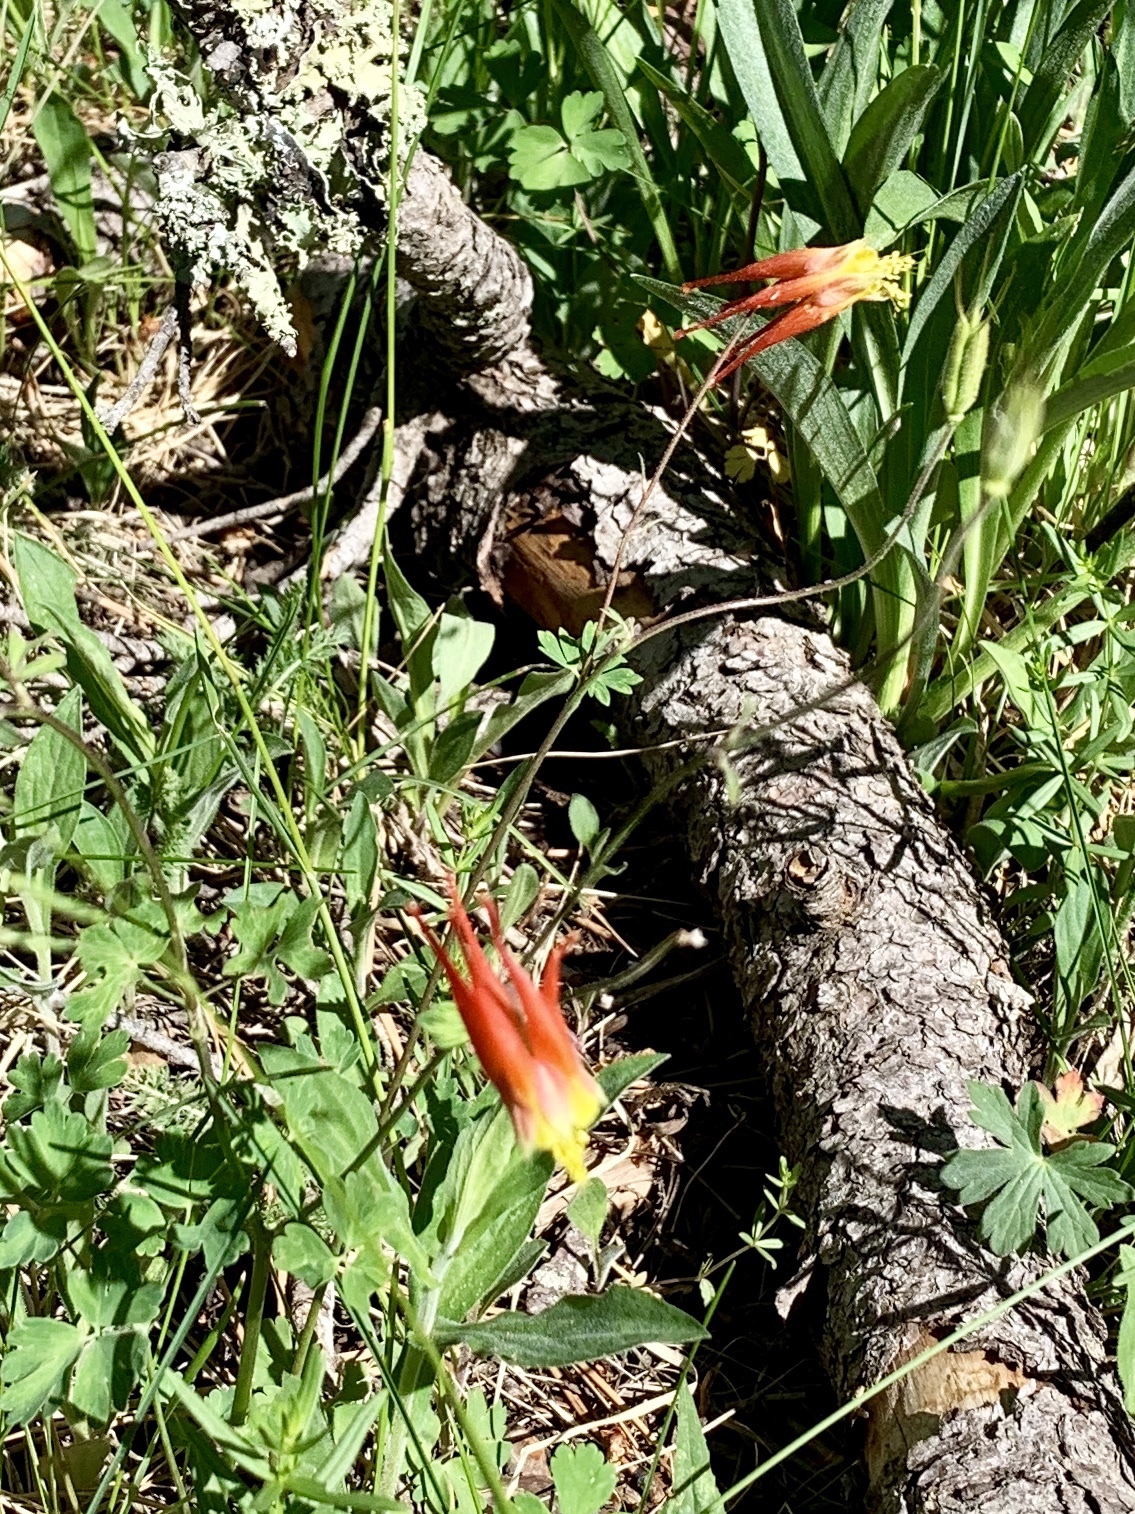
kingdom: Plantae
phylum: Tracheophyta
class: Magnoliopsida
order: Ranunculales
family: Ranunculaceae
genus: Aquilegia
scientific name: Aquilegia elegantula
